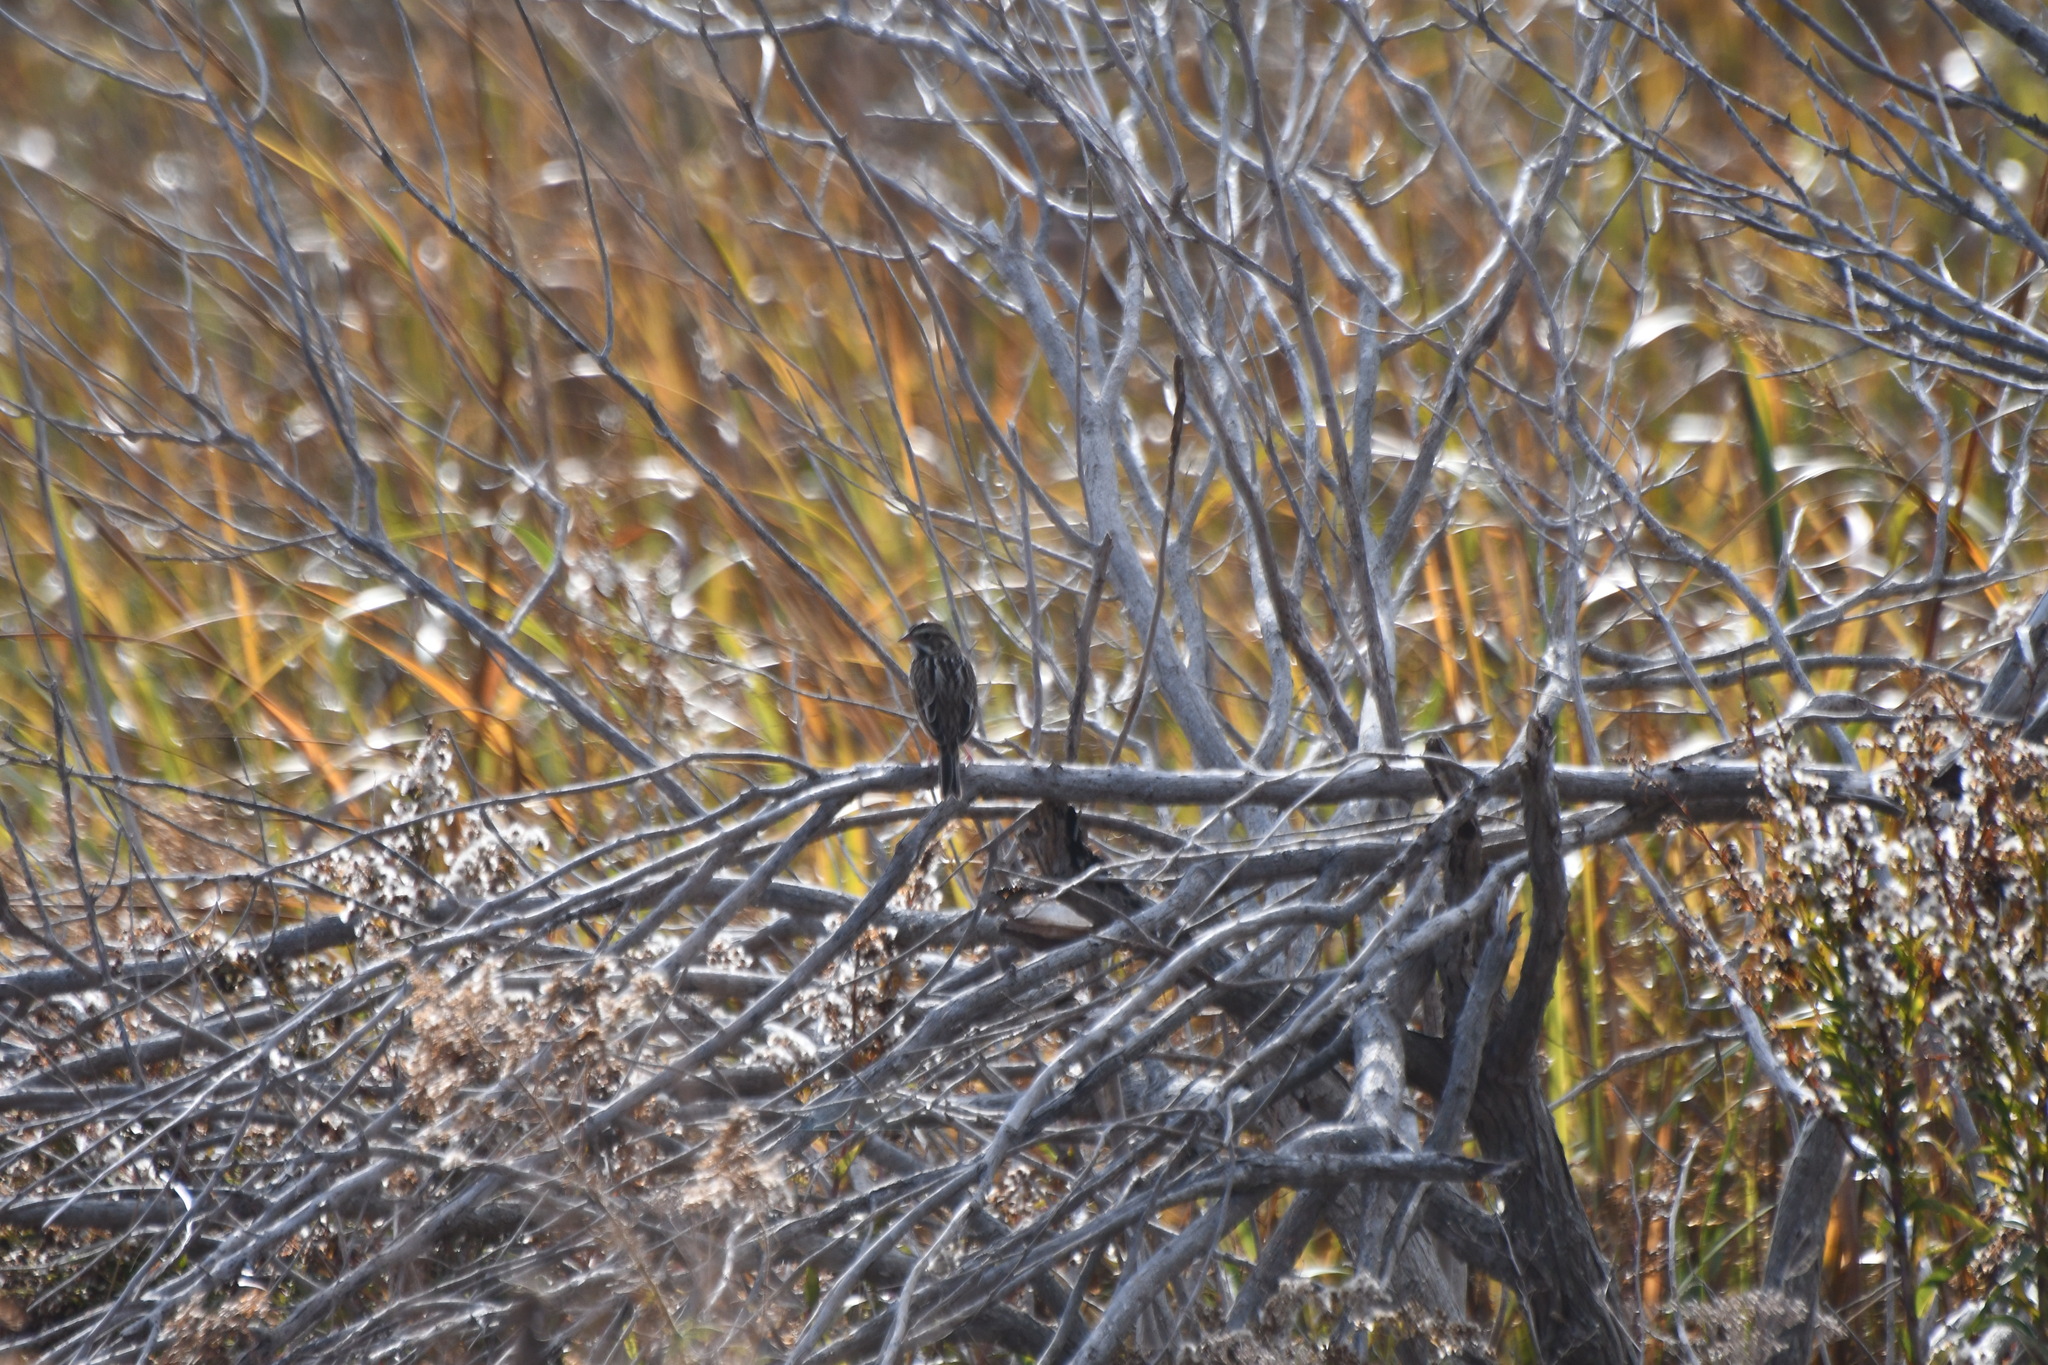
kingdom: Animalia
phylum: Chordata
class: Aves
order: Passeriformes
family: Passerellidae
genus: Passerculus
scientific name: Passerculus sandwichensis
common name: Savannah sparrow
